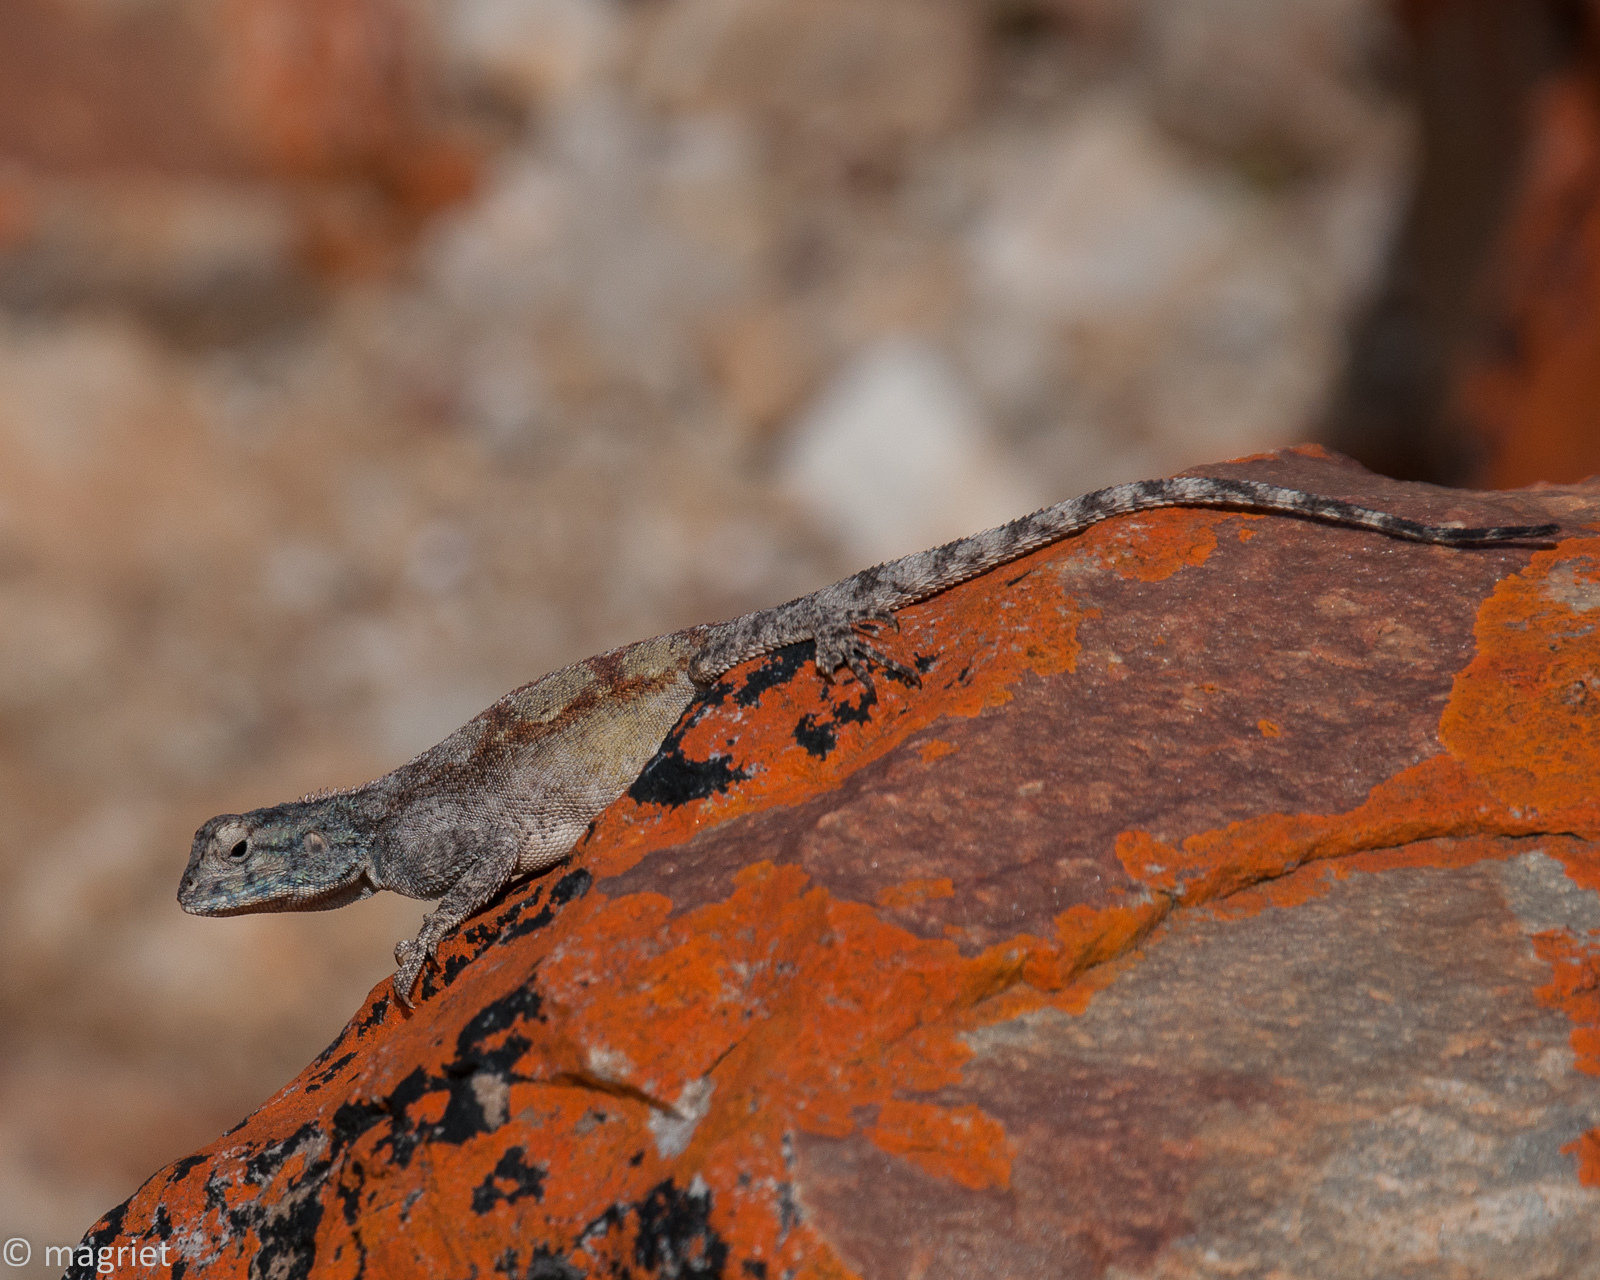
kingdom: Animalia
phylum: Chordata
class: Squamata
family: Agamidae
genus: Agama
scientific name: Agama atra
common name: Southern african rock agama
